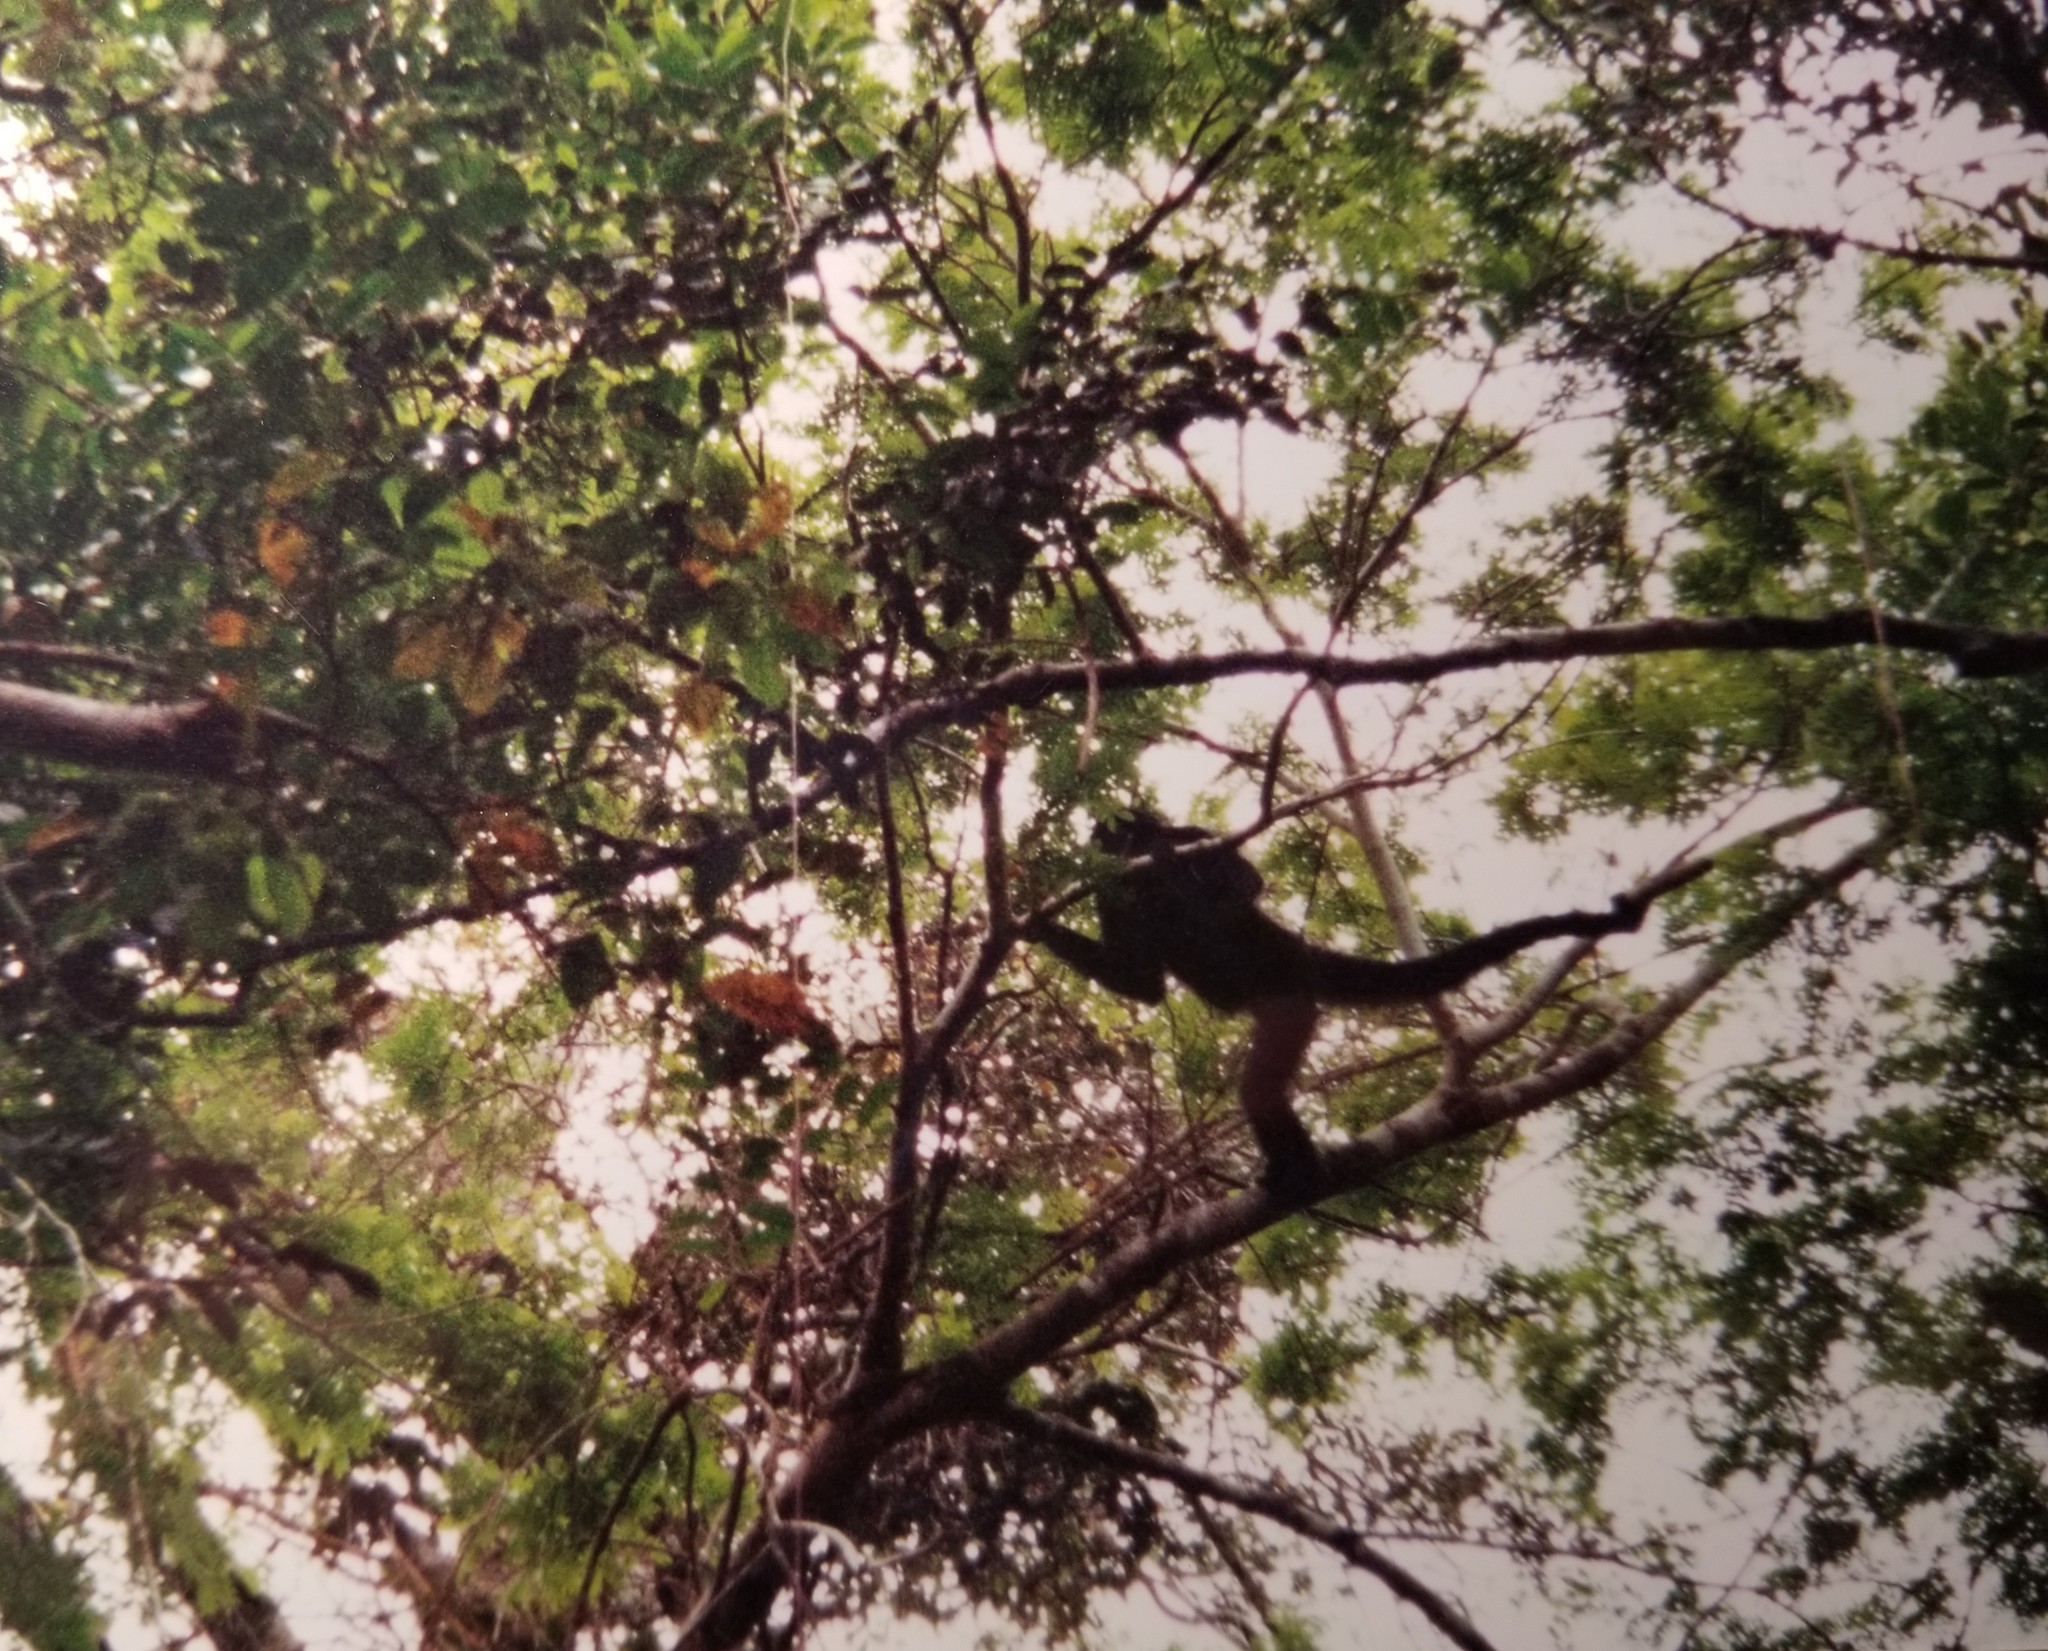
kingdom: Animalia
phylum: Chordata
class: Mammalia
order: Primates
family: Atelidae
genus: Ateles
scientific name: Ateles chamek
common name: Peruvian spider monkey
